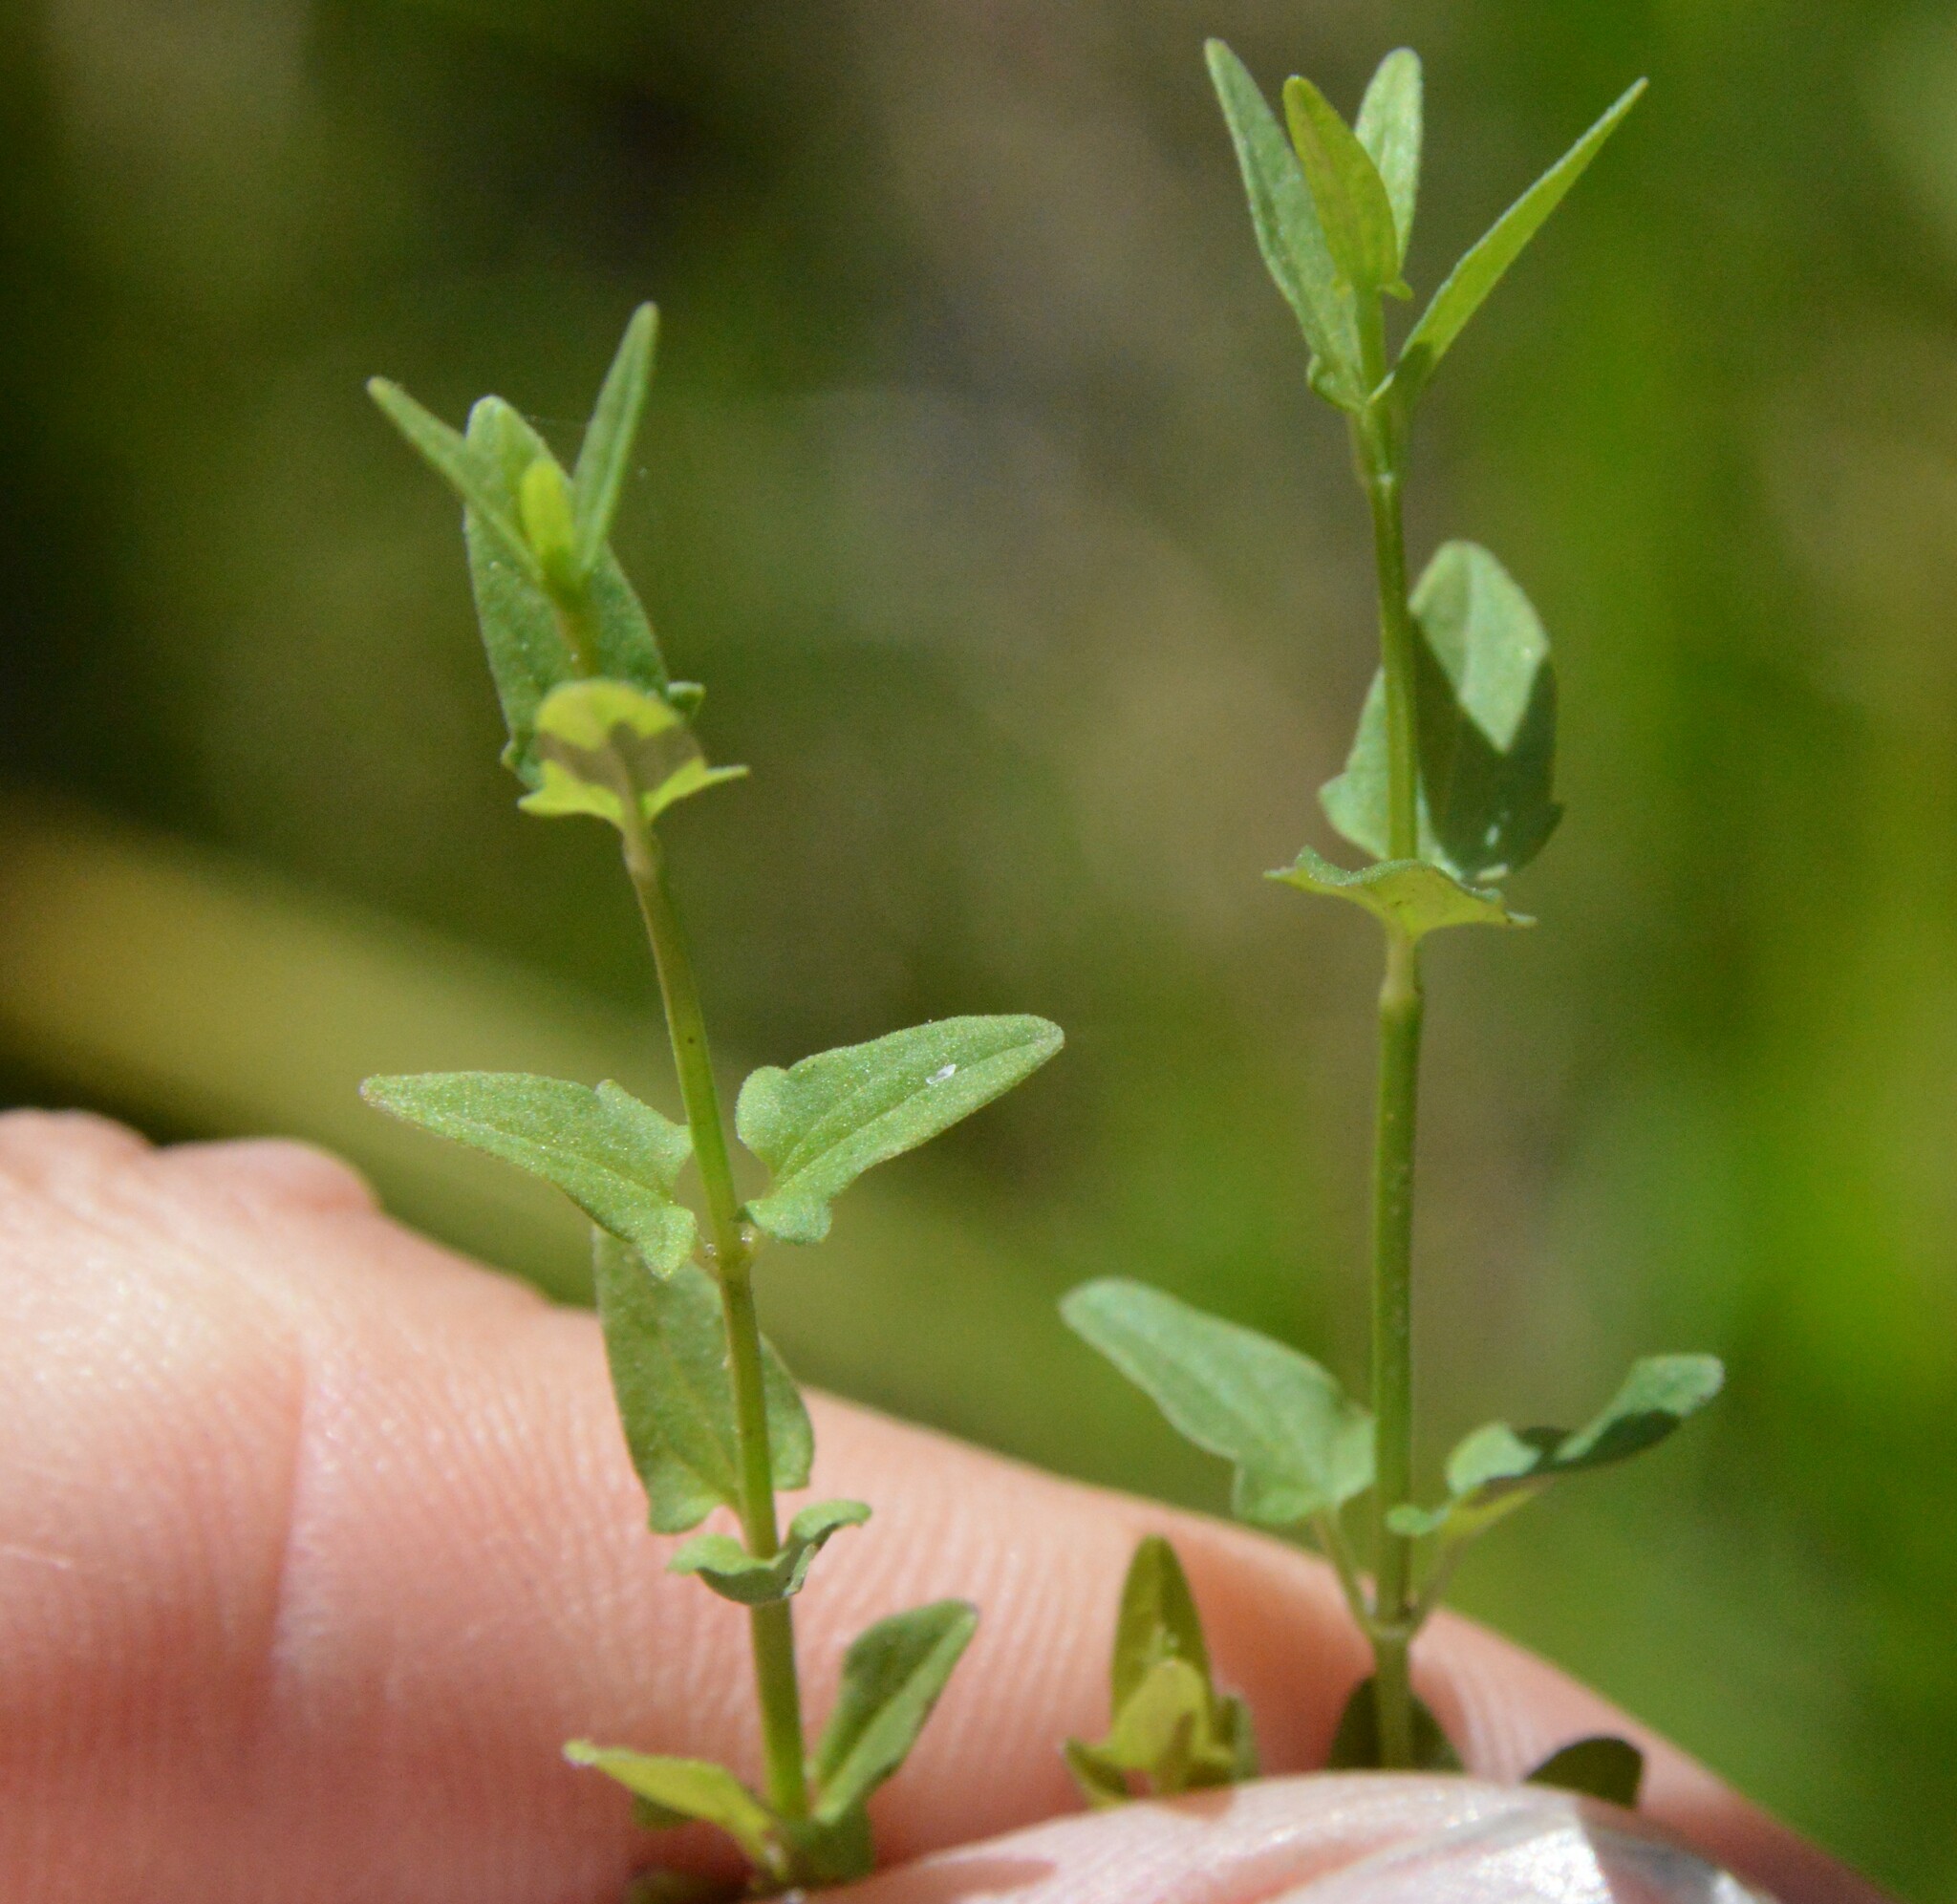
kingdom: Plantae
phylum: Tracheophyta
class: Magnoliopsida
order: Lamiales
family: Lamiaceae
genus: Scutellaria
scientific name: Scutellaria racemosa
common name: South american skullcap
